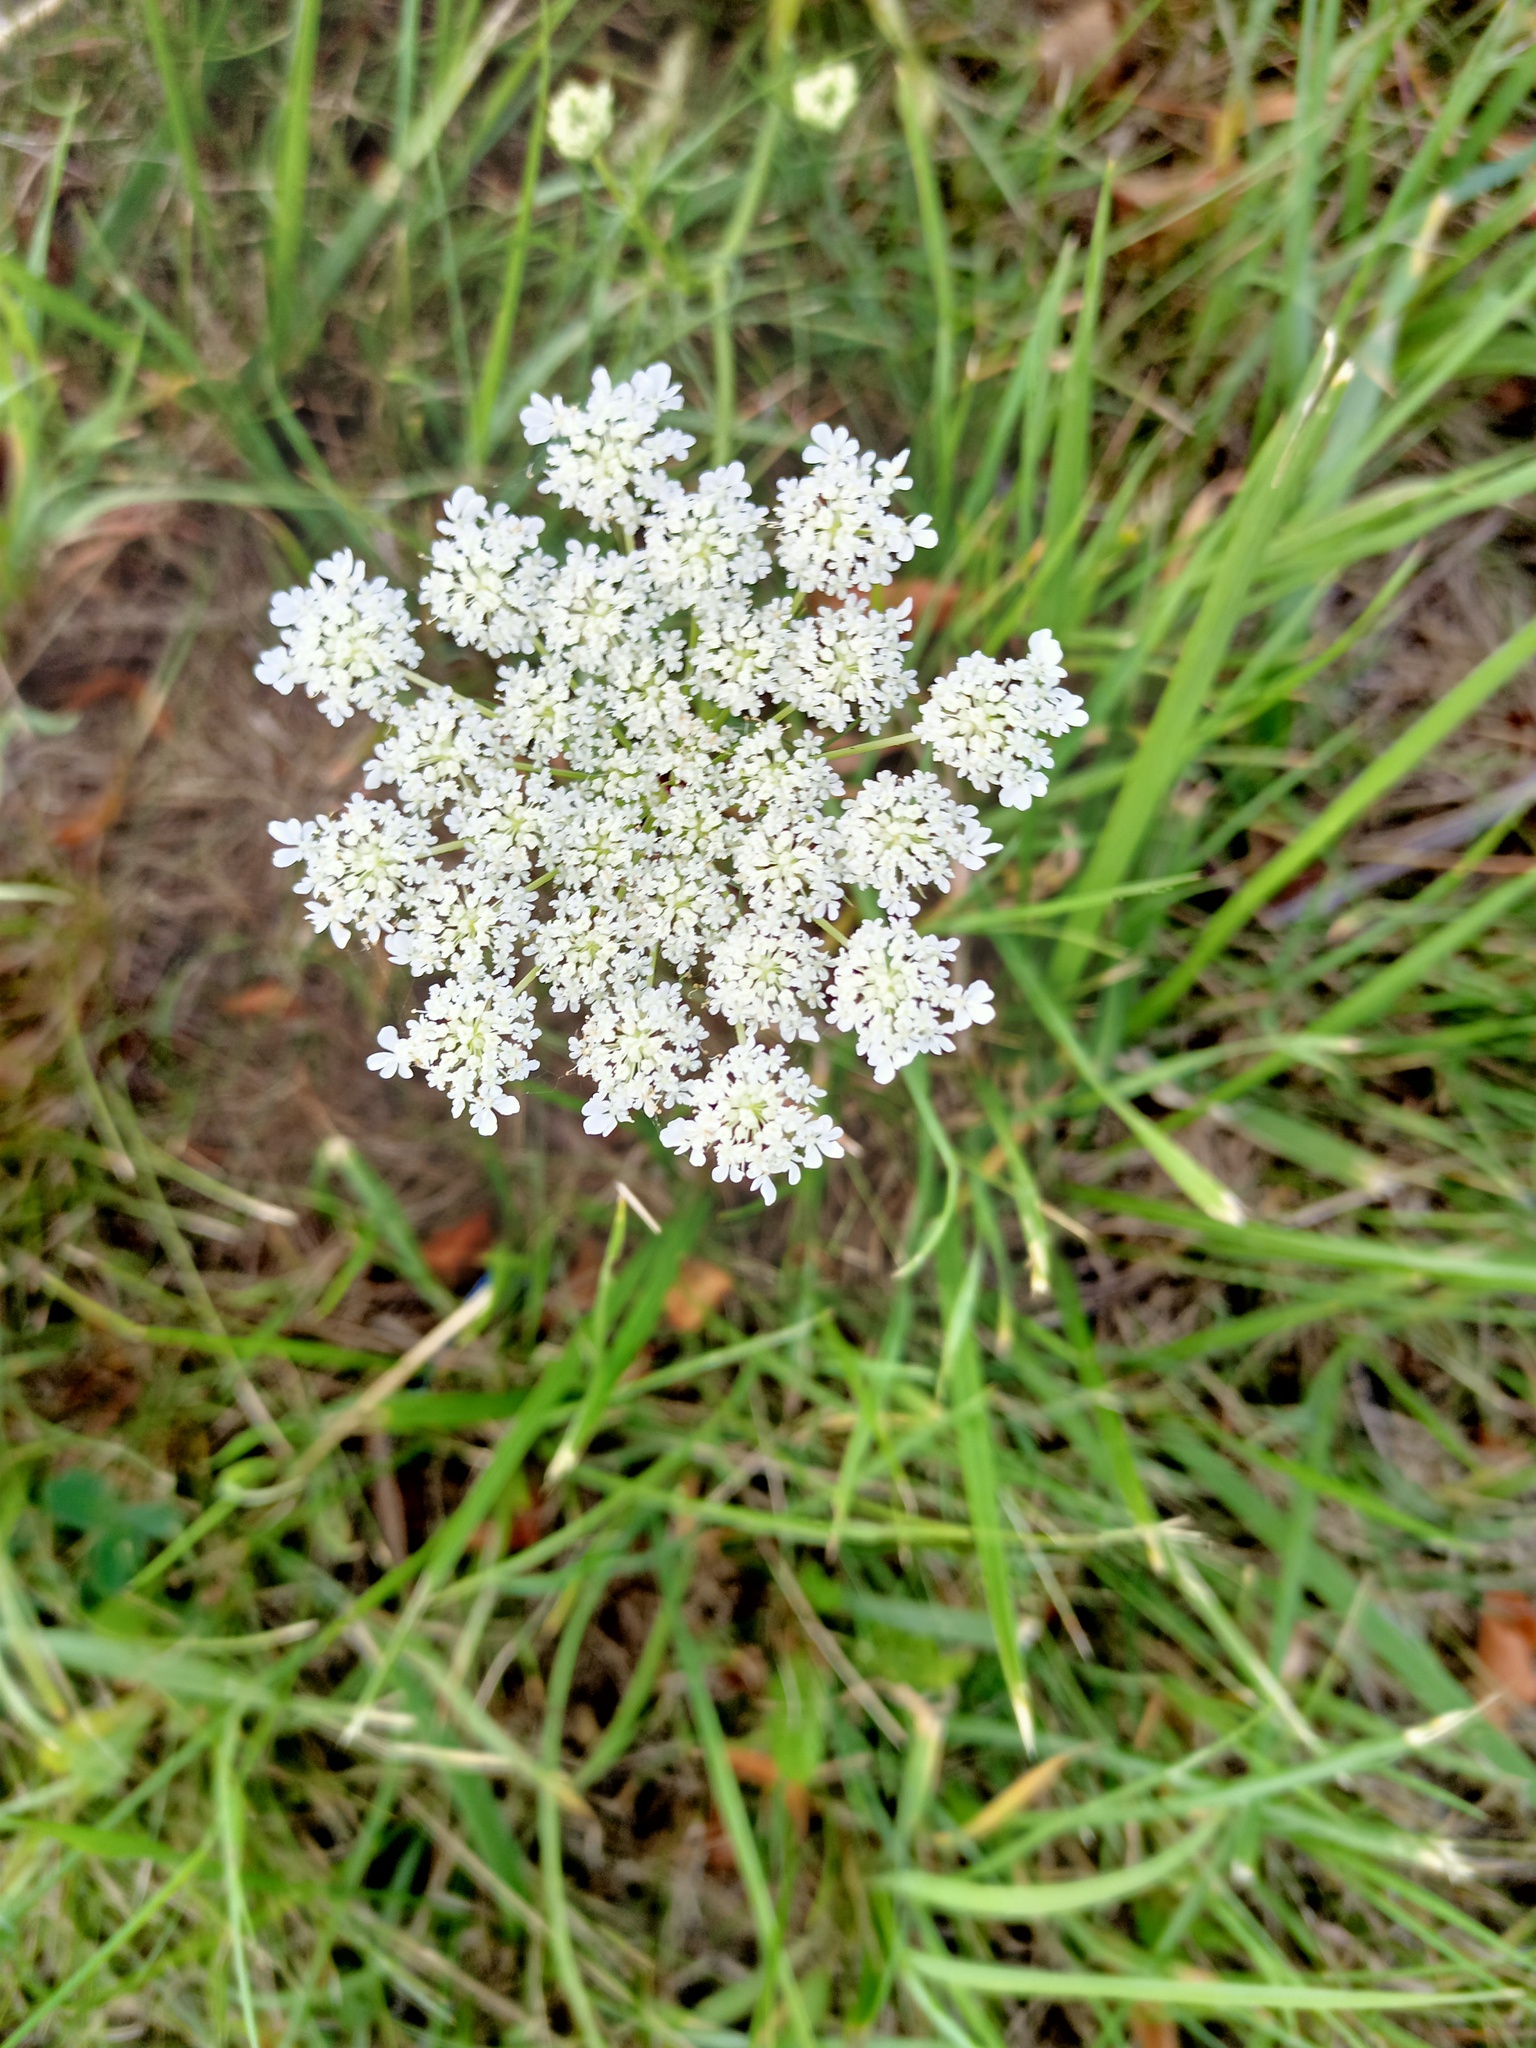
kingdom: Plantae
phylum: Tracheophyta
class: Magnoliopsida
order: Apiales
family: Apiaceae
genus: Daucus
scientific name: Daucus carota
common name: Wild carrot
